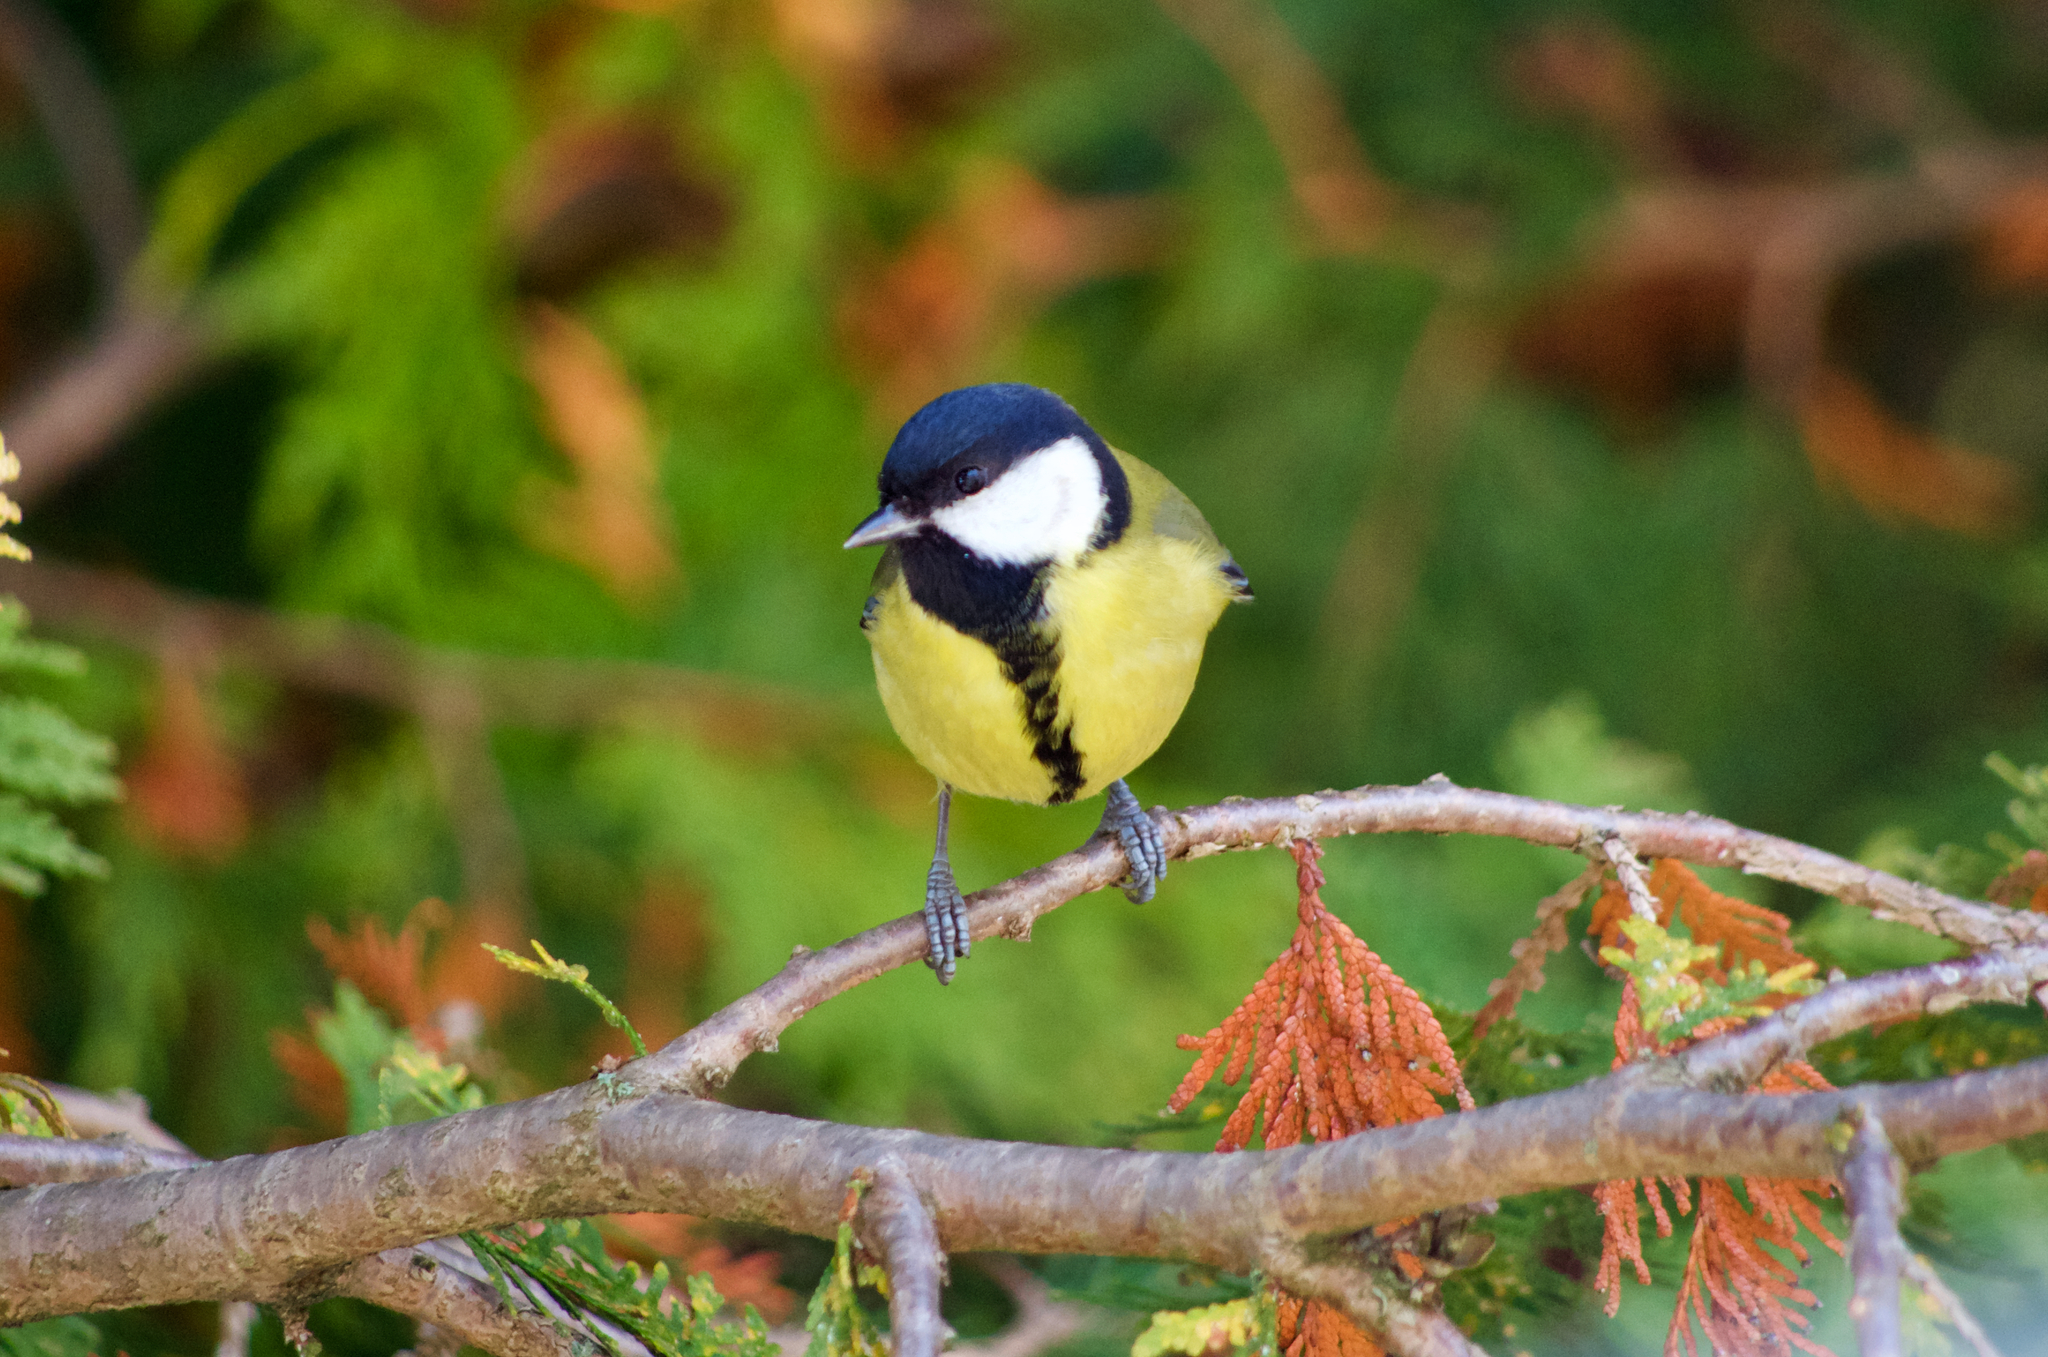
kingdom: Animalia
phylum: Chordata
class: Aves
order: Passeriformes
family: Paridae
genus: Parus
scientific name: Parus major
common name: Great tit
